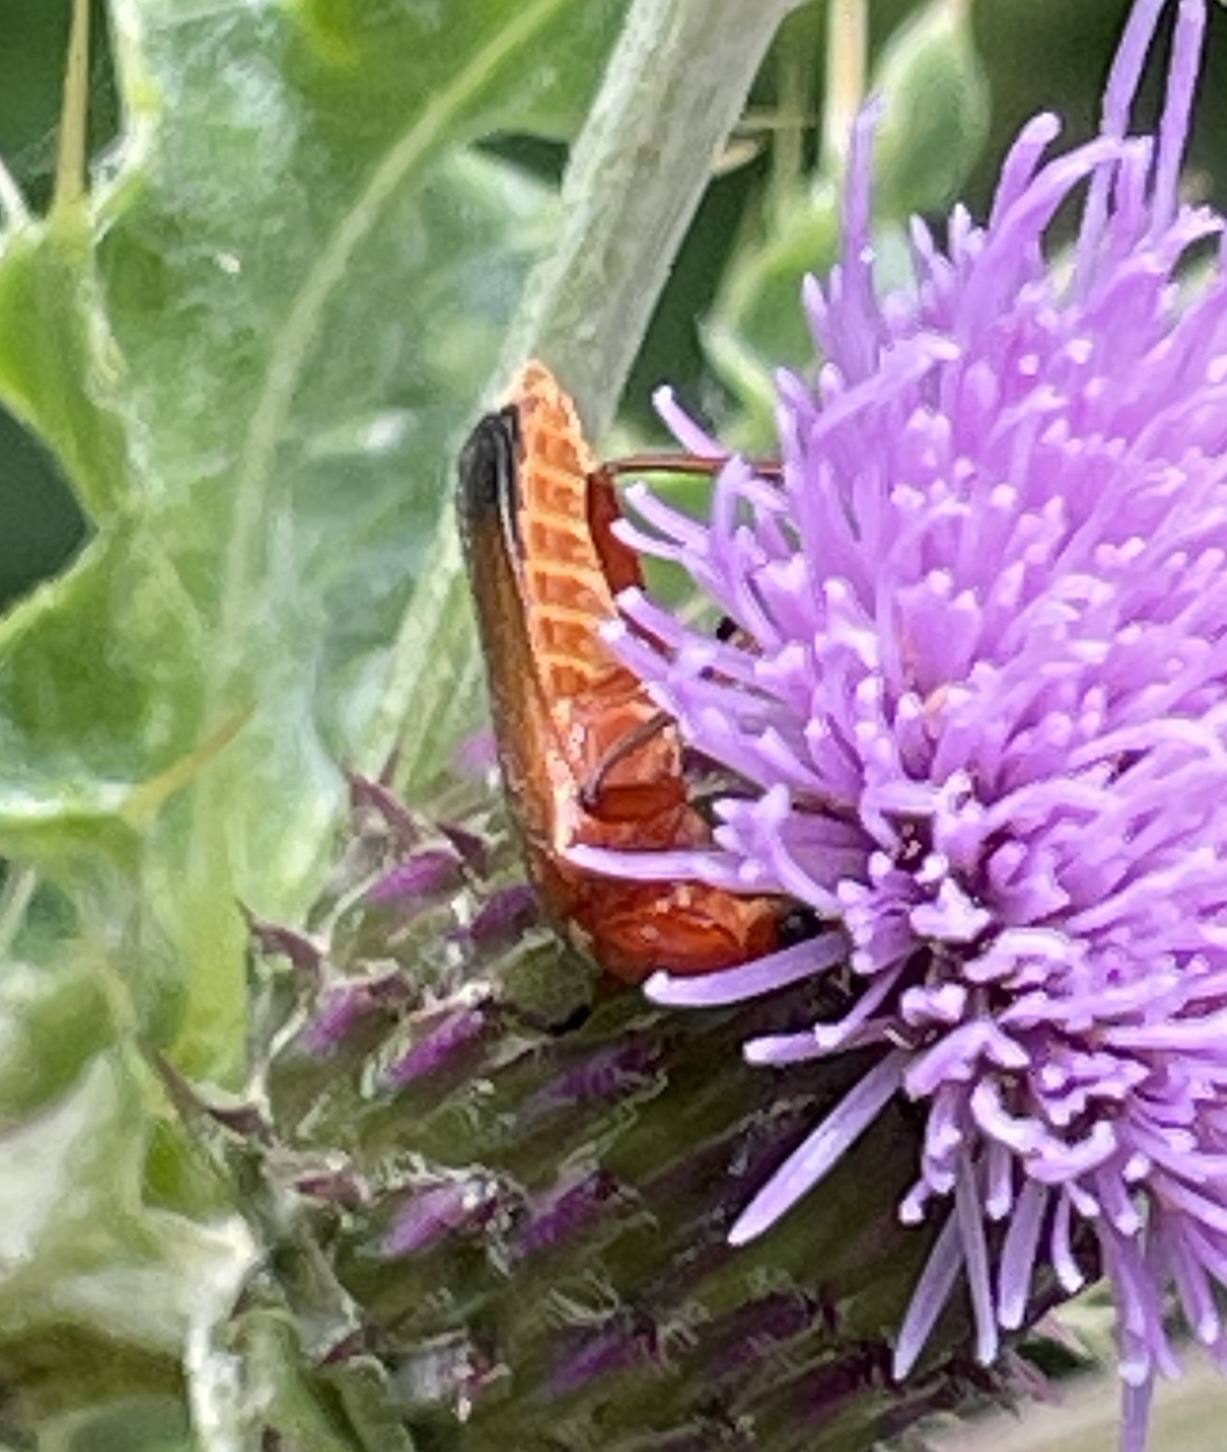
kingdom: Animalia
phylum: Arthropoda
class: Insecta
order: Coleoptera
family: Cantharidae
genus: Rhagonycha
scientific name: Rhagonycha fulva
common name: Common red soldier beetle
